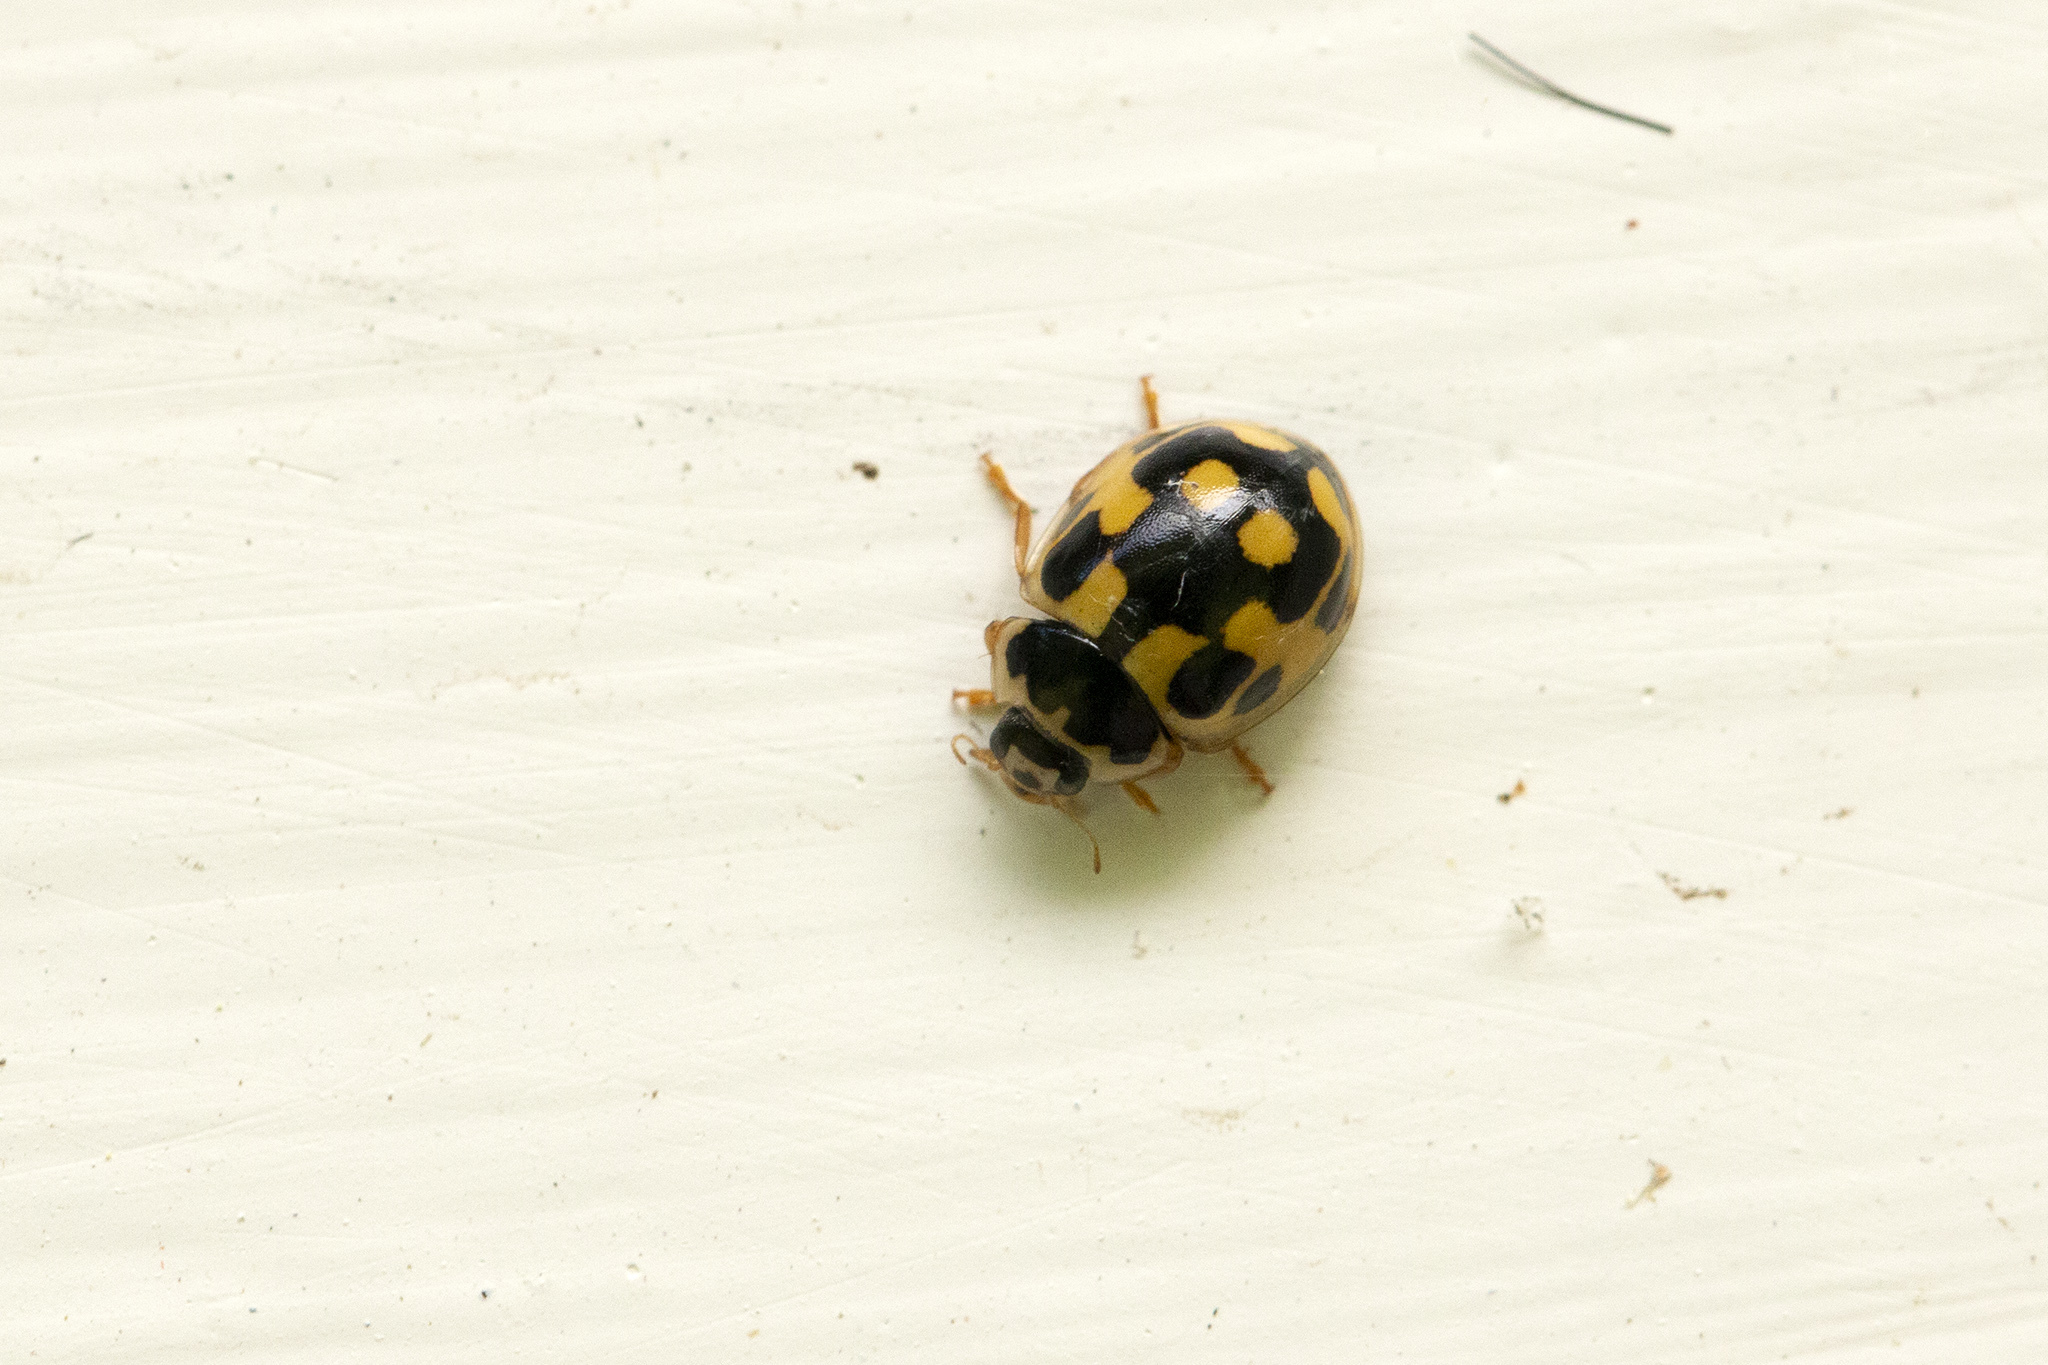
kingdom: Animalia
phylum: Arthropoda
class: Insecta
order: Coleoptera
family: Coccinellidae
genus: Propylaea
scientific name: Propylaea quatuordecimpunctata
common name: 14-spotted ladybird beetle
